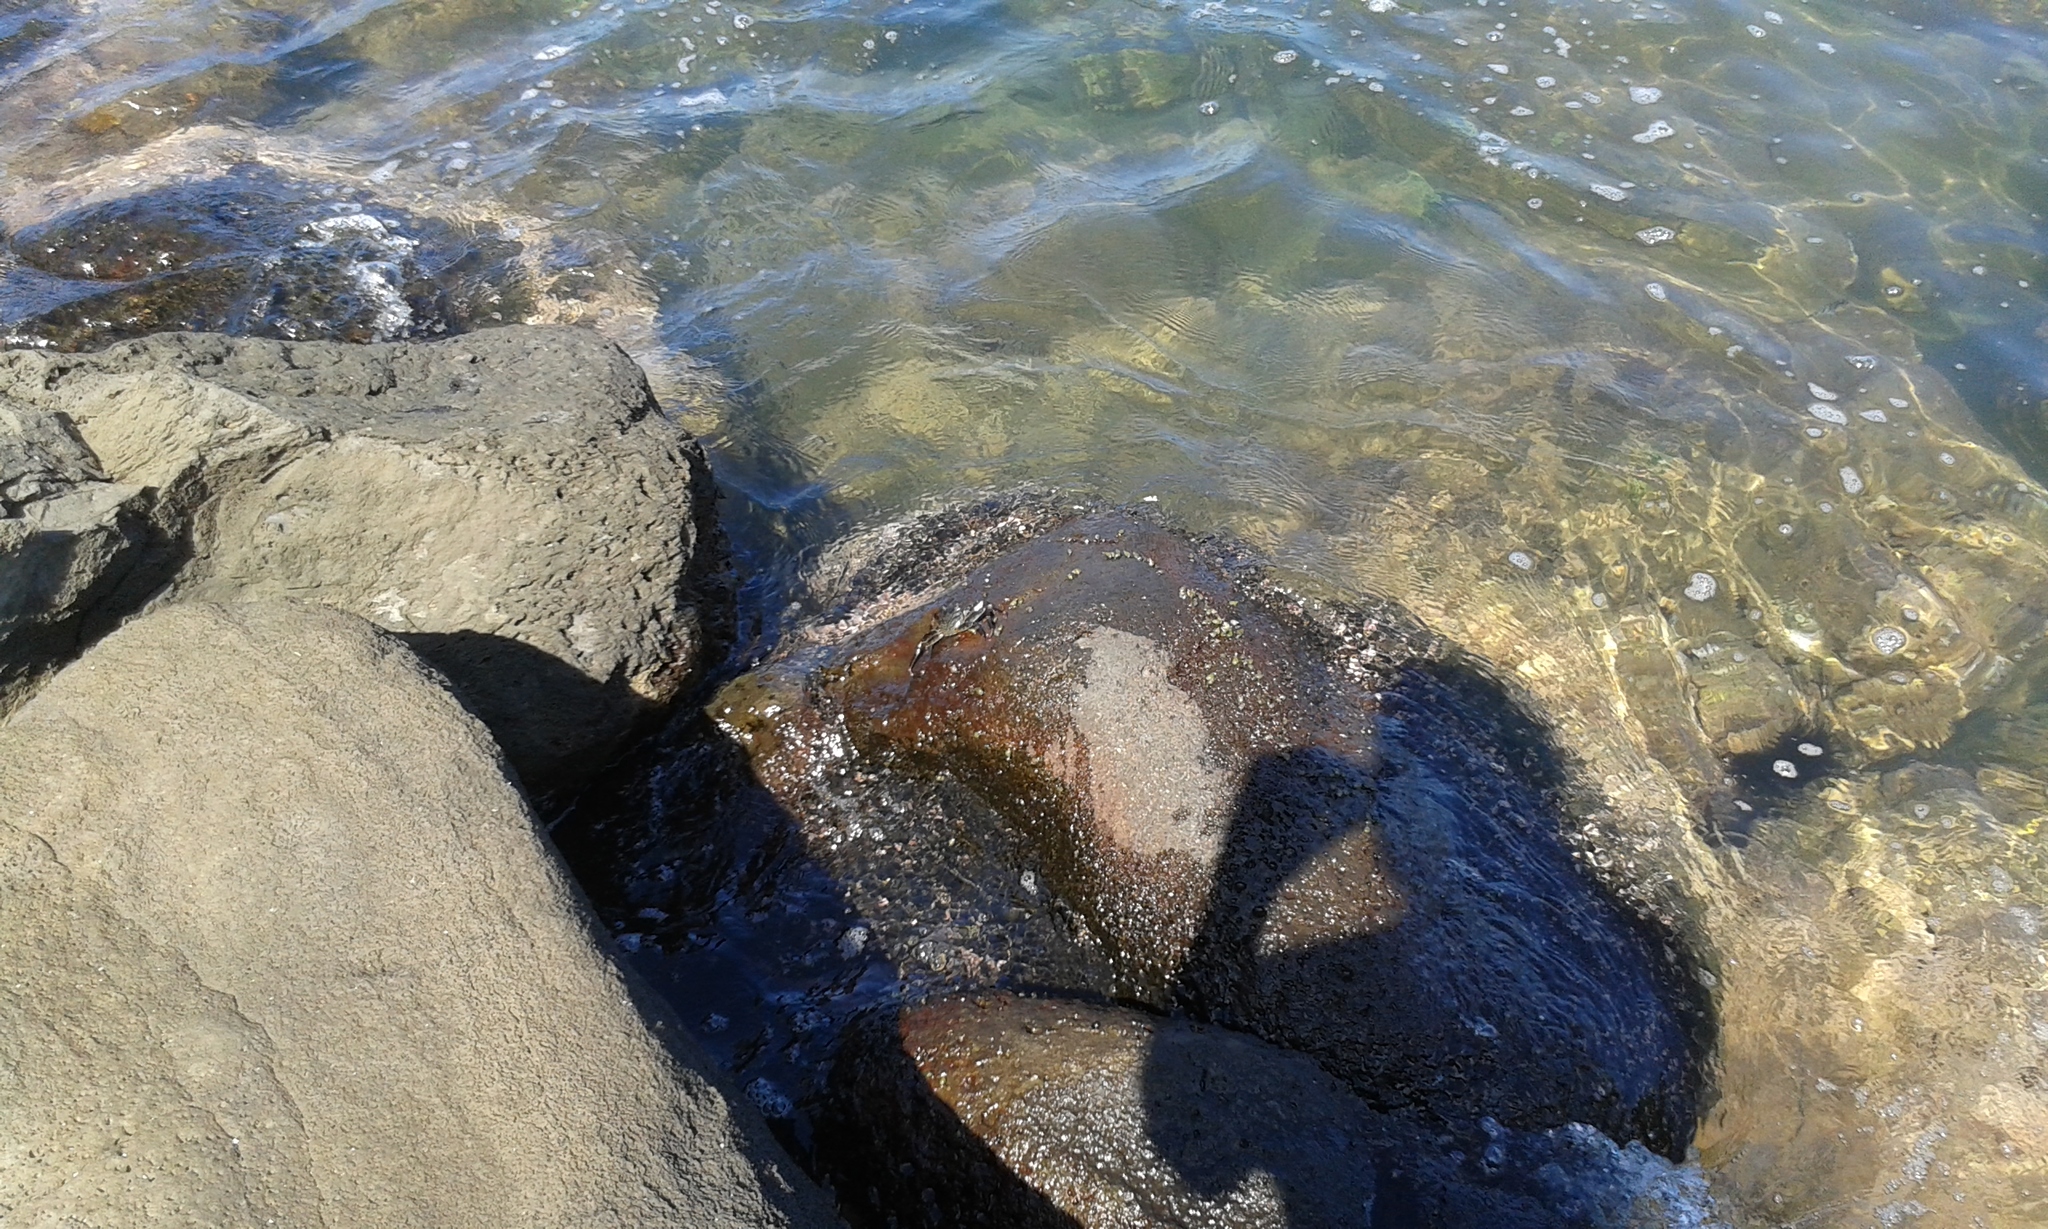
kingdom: Animalia
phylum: Arthropoda
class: Malacostraca
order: Decapoda
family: Grapsidae
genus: Grapsus
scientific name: Grapsus tenuicrustatus
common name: Natal lightfoot crab
